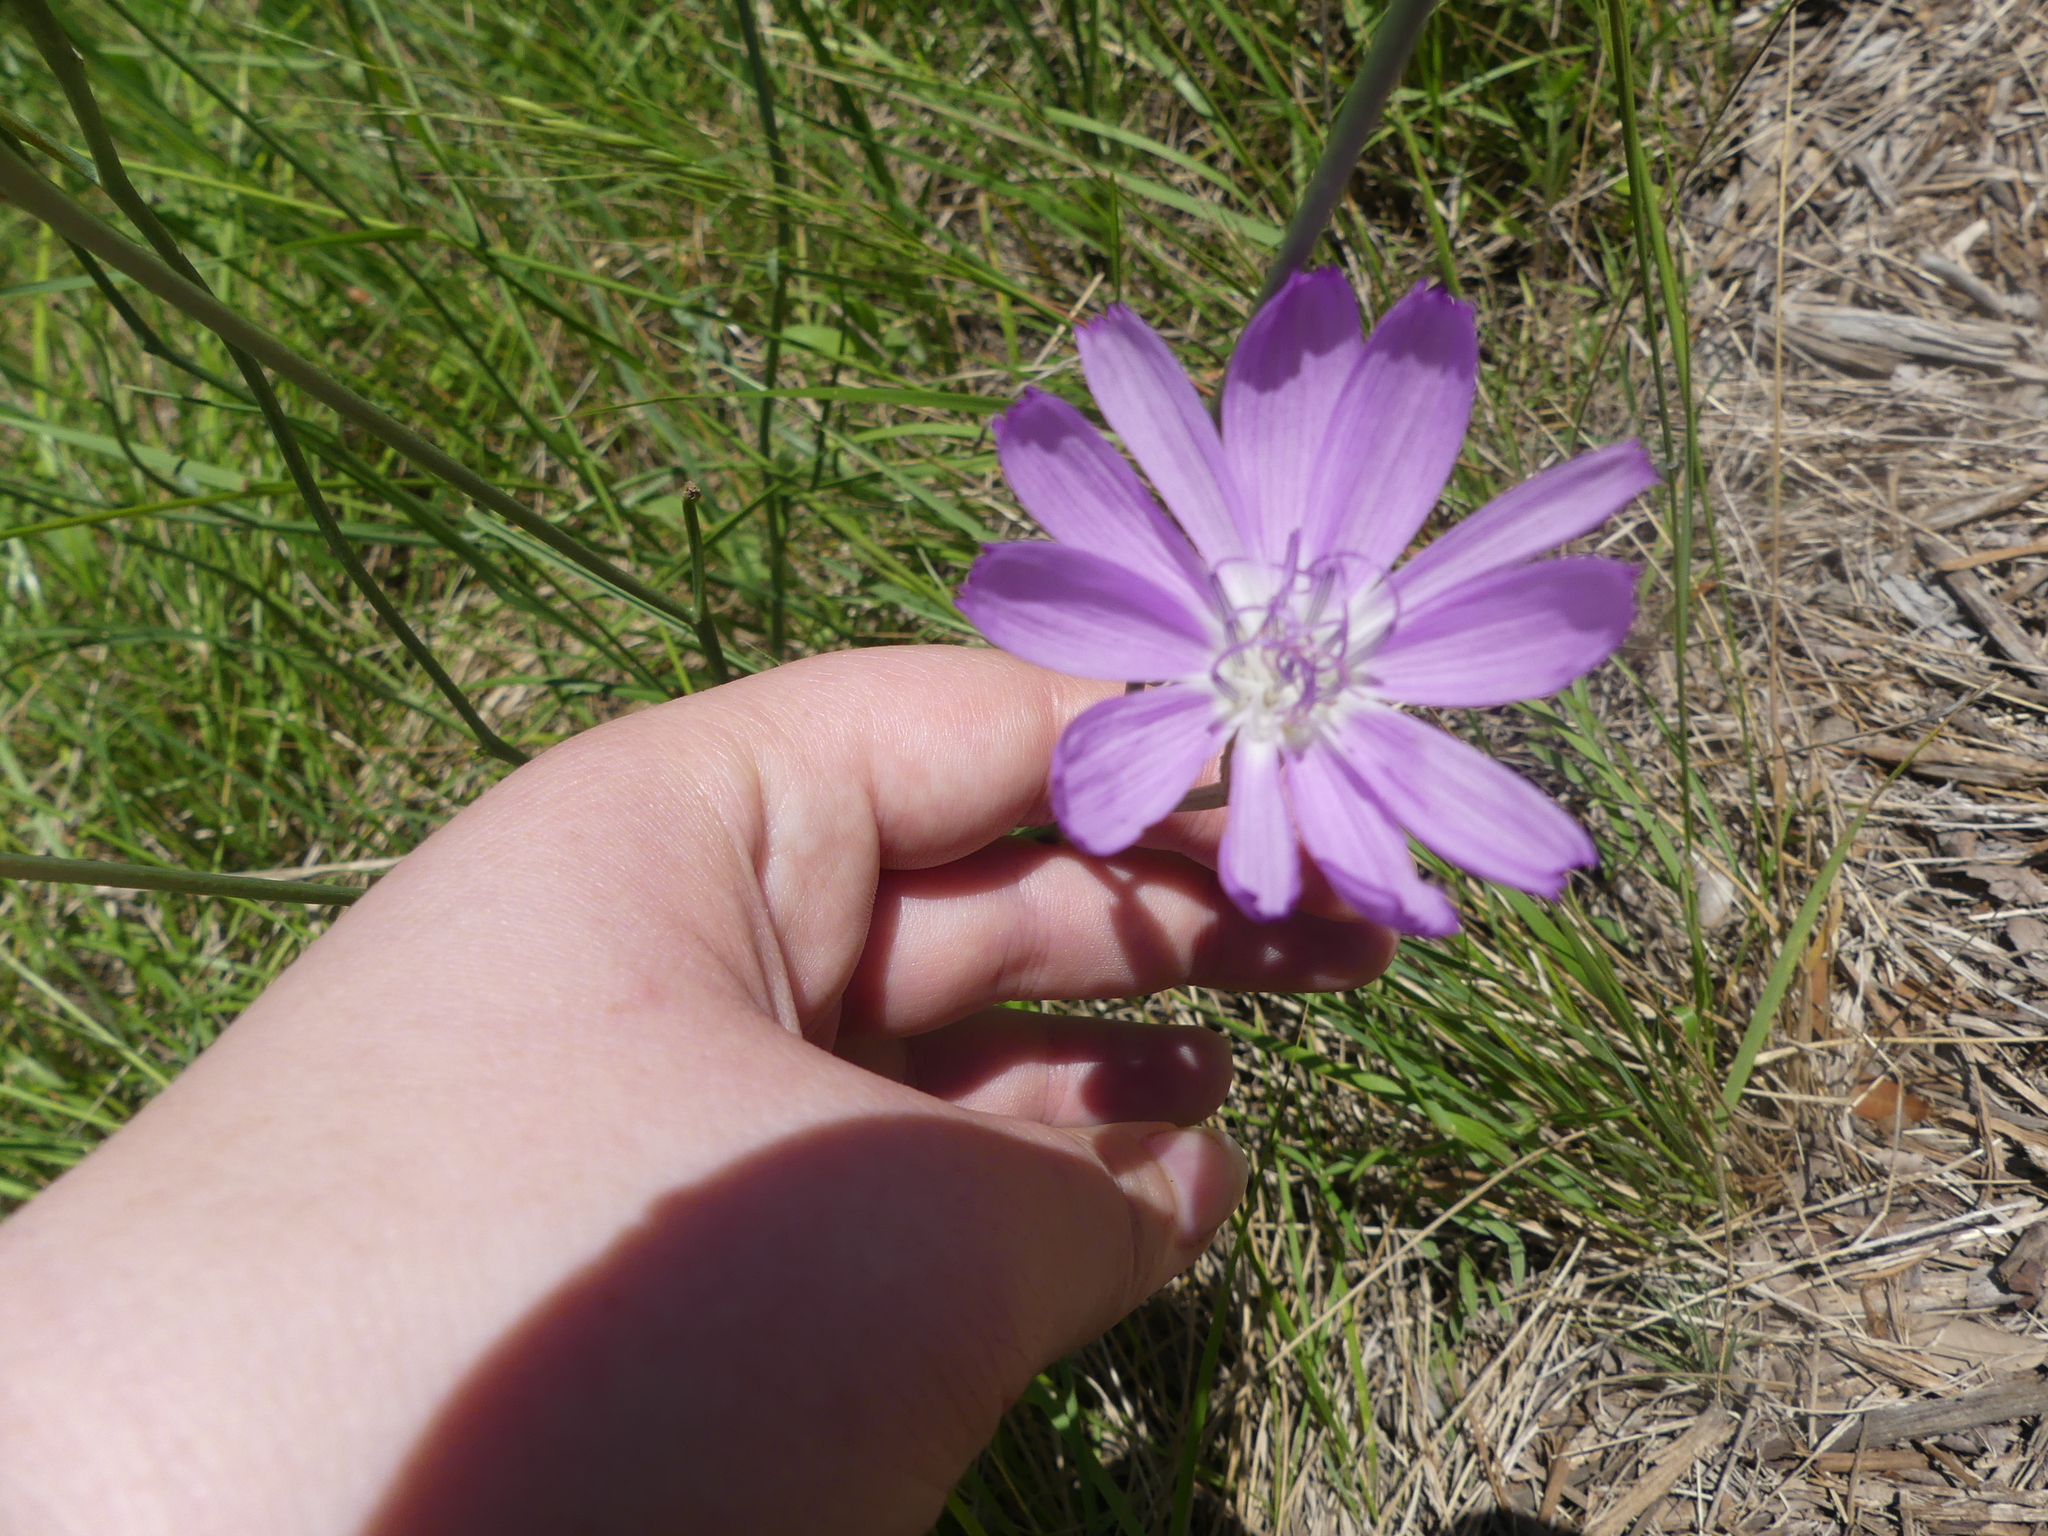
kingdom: Plantae
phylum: Tracheophyta
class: Magnoliopsida
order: Asterales
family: Asteraceae
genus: Lygodesmia
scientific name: Lygodesmia texana
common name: Texas skeleton-plant
